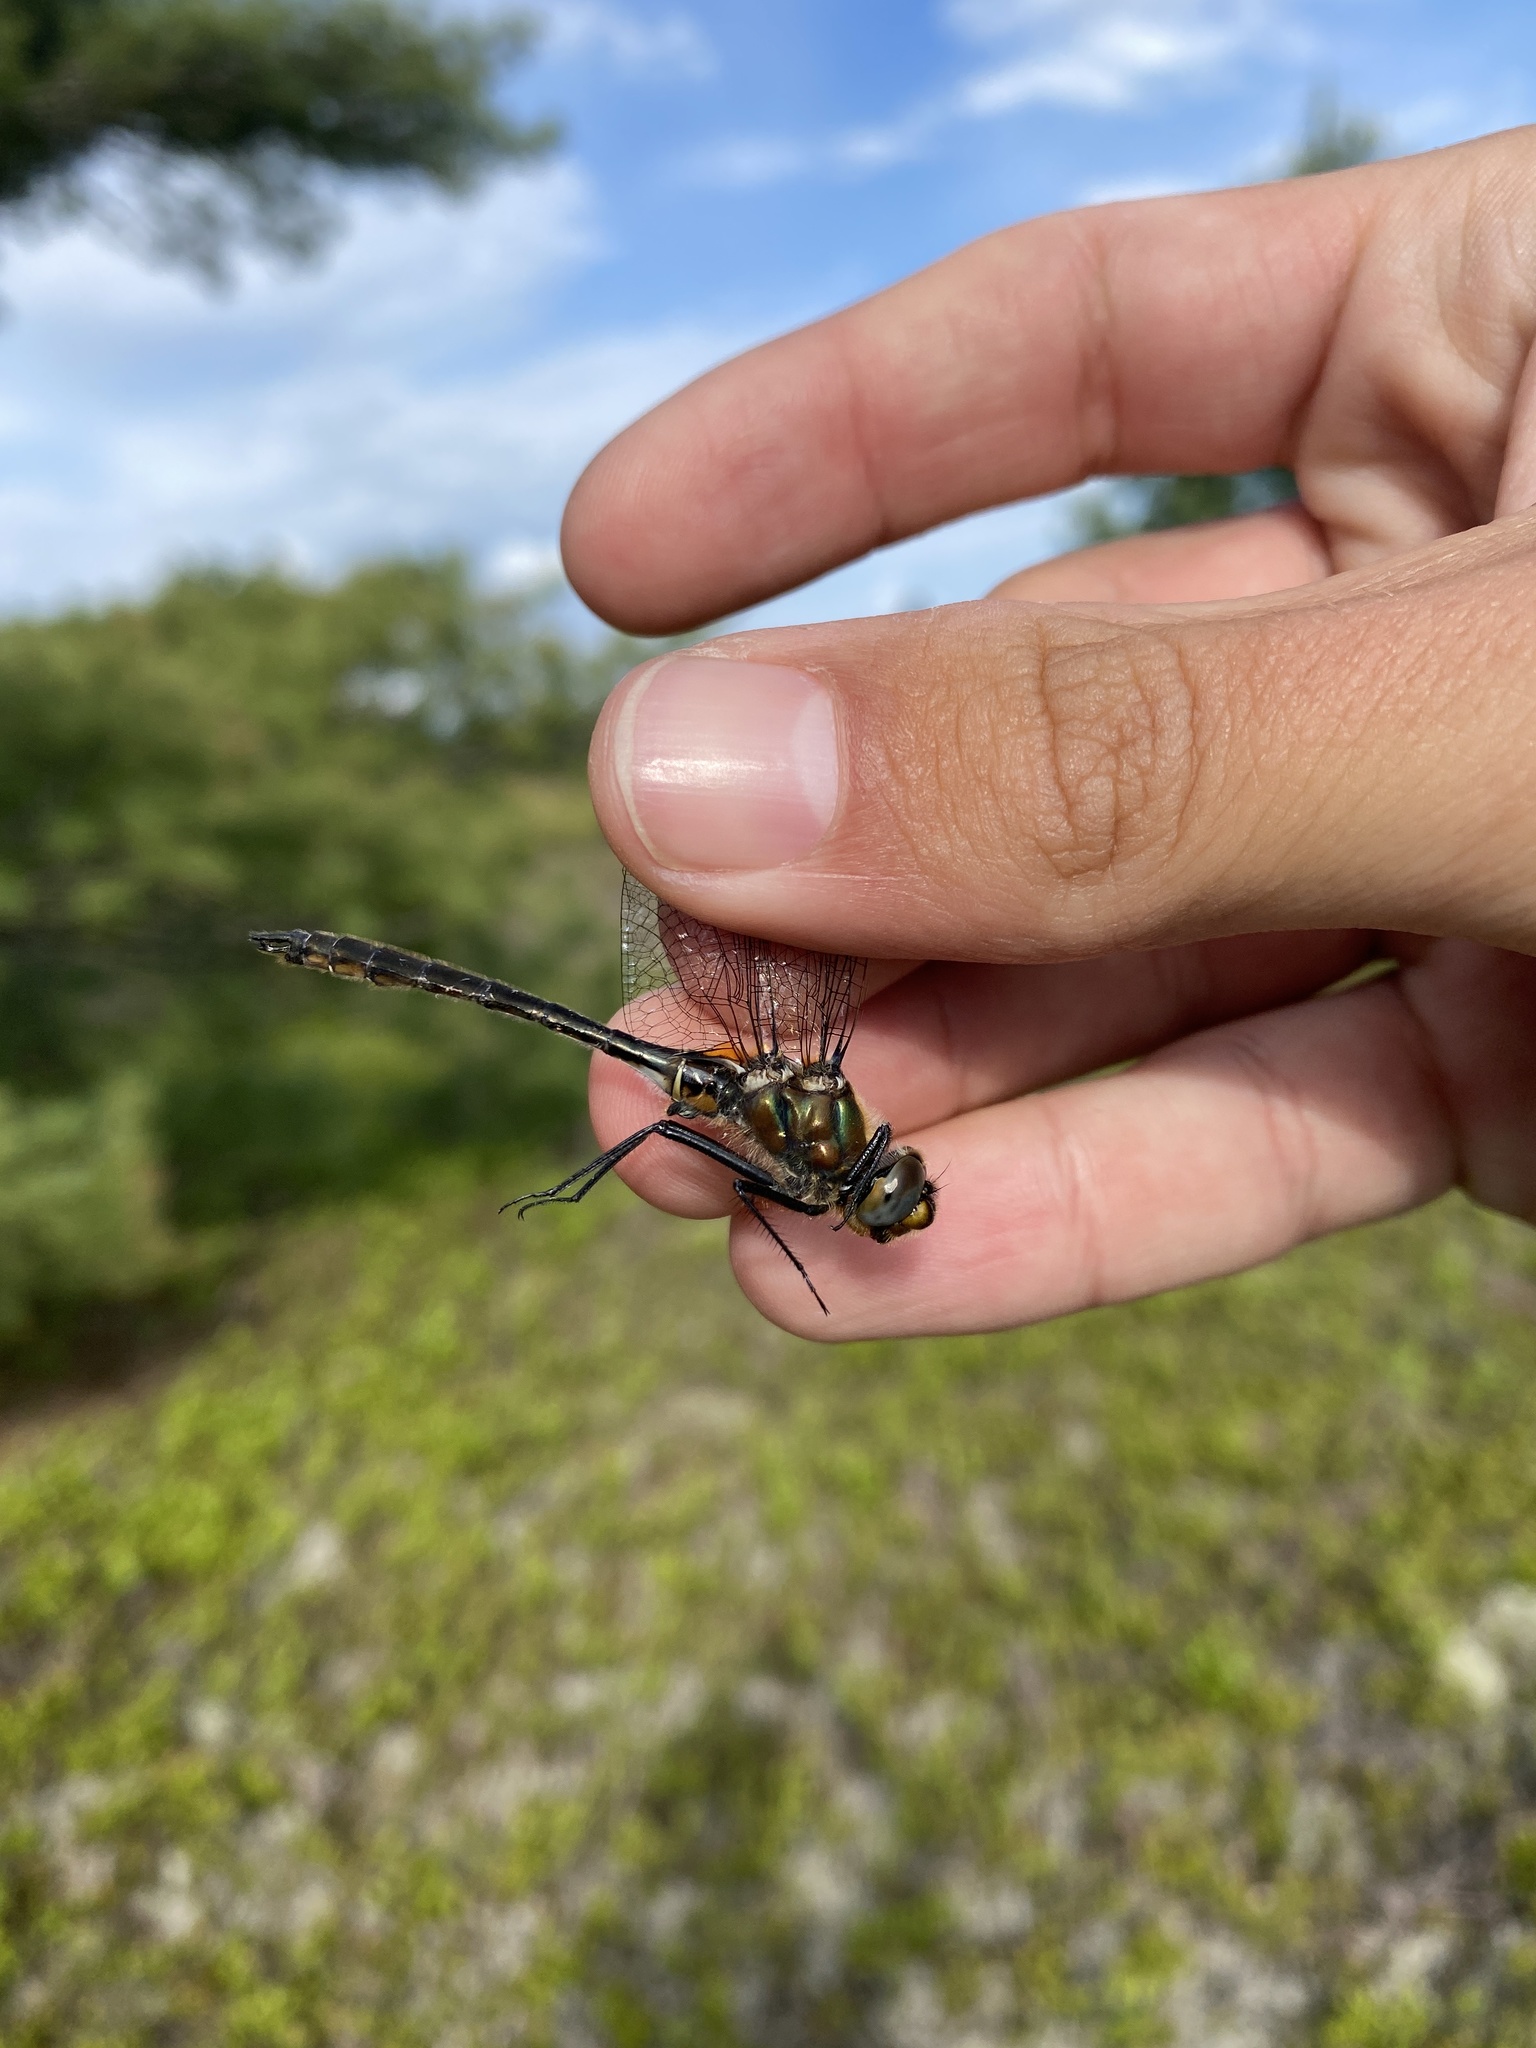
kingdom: Animalia
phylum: Arthropoda
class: Insecta
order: Odonata
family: Corduliidae
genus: Cordulia
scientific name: Cordulia shurtleffii
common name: American emerald
